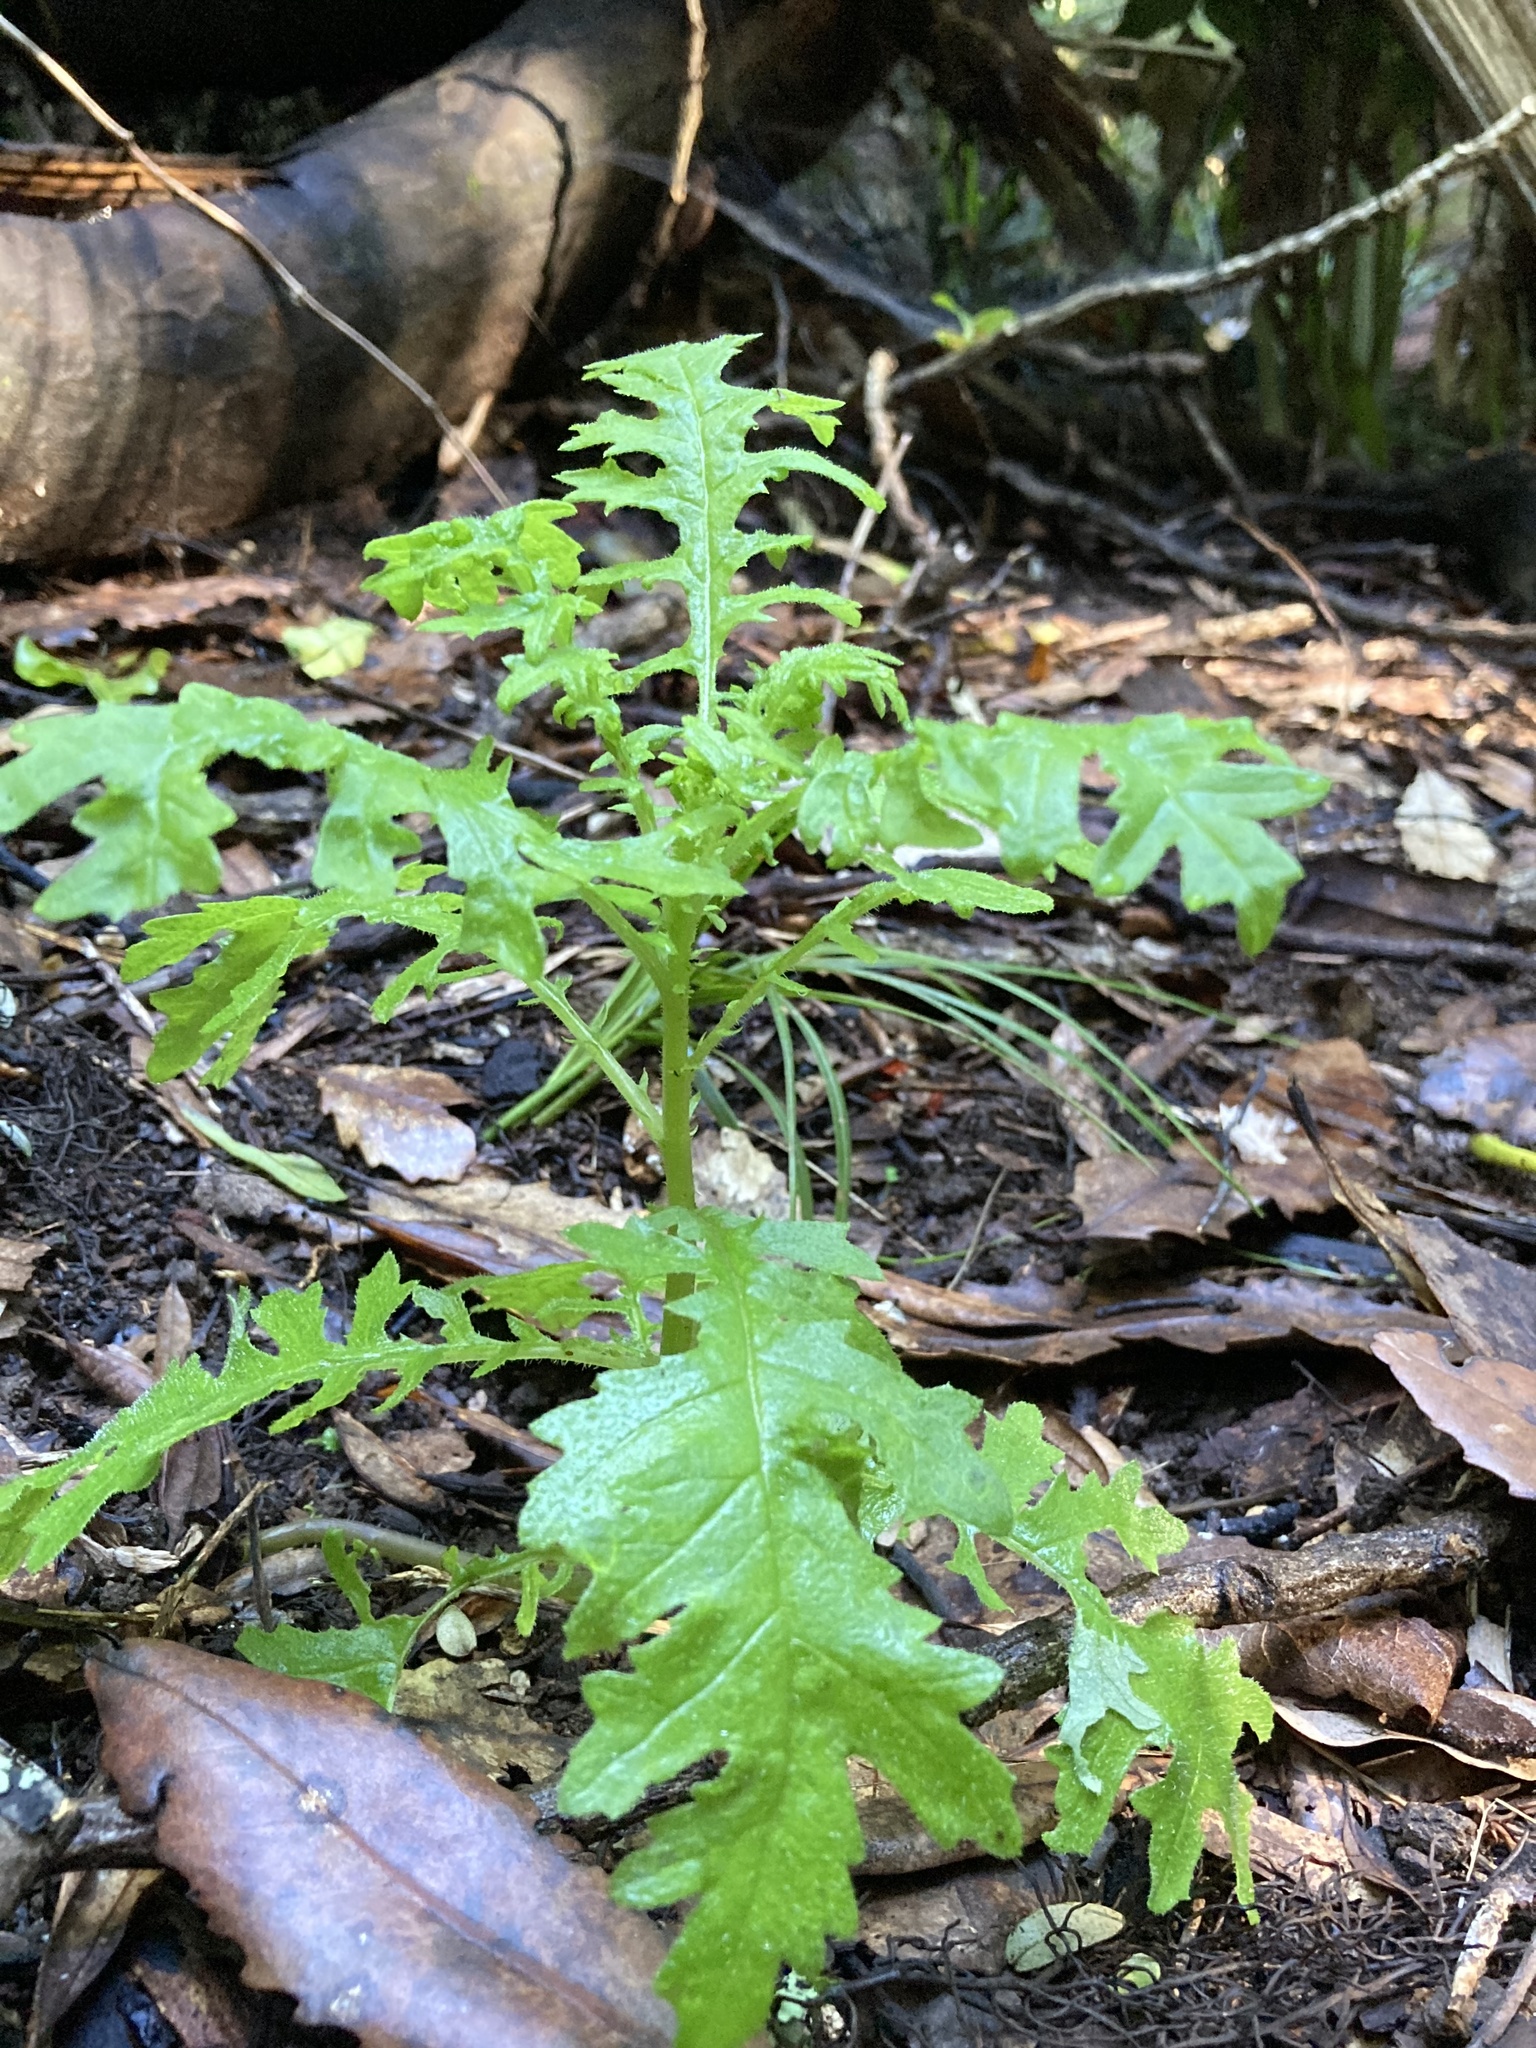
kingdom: Plantae
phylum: Tracheophyta
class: Magnoliopsida
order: Asterales
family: Asteraceae
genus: Senecio
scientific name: Senecio esleri
